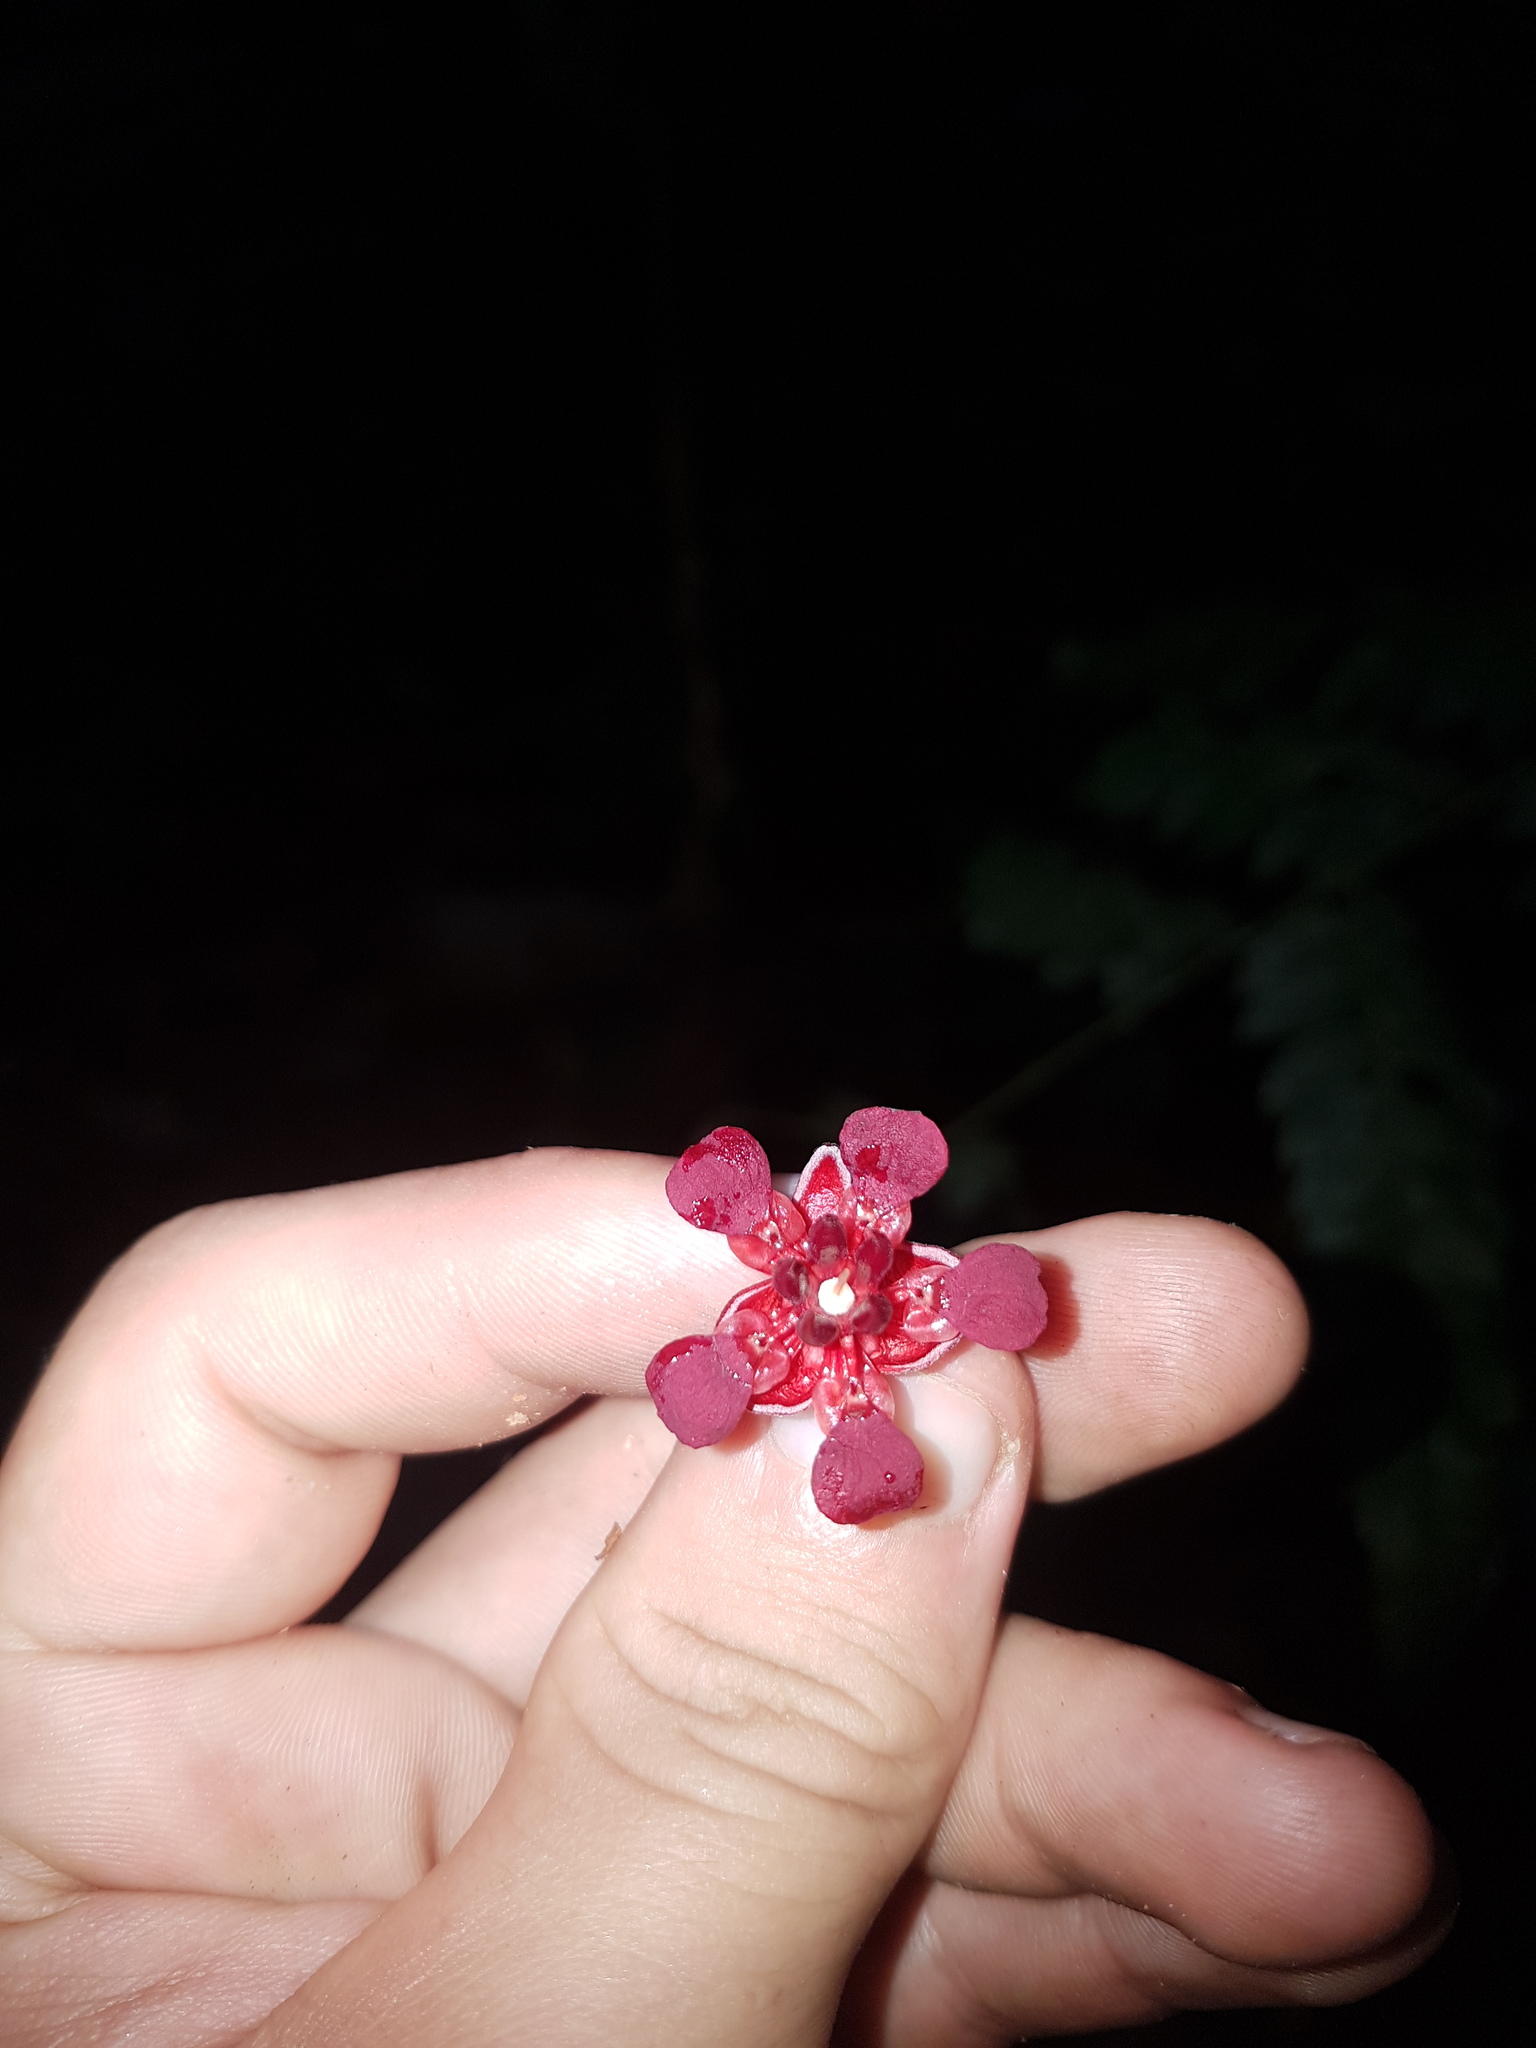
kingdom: Plantae
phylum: Tracheophyta
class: Magnoliopsida
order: Malvales
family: Malvaceae
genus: Theobroma
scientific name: Theobroma speciosum
